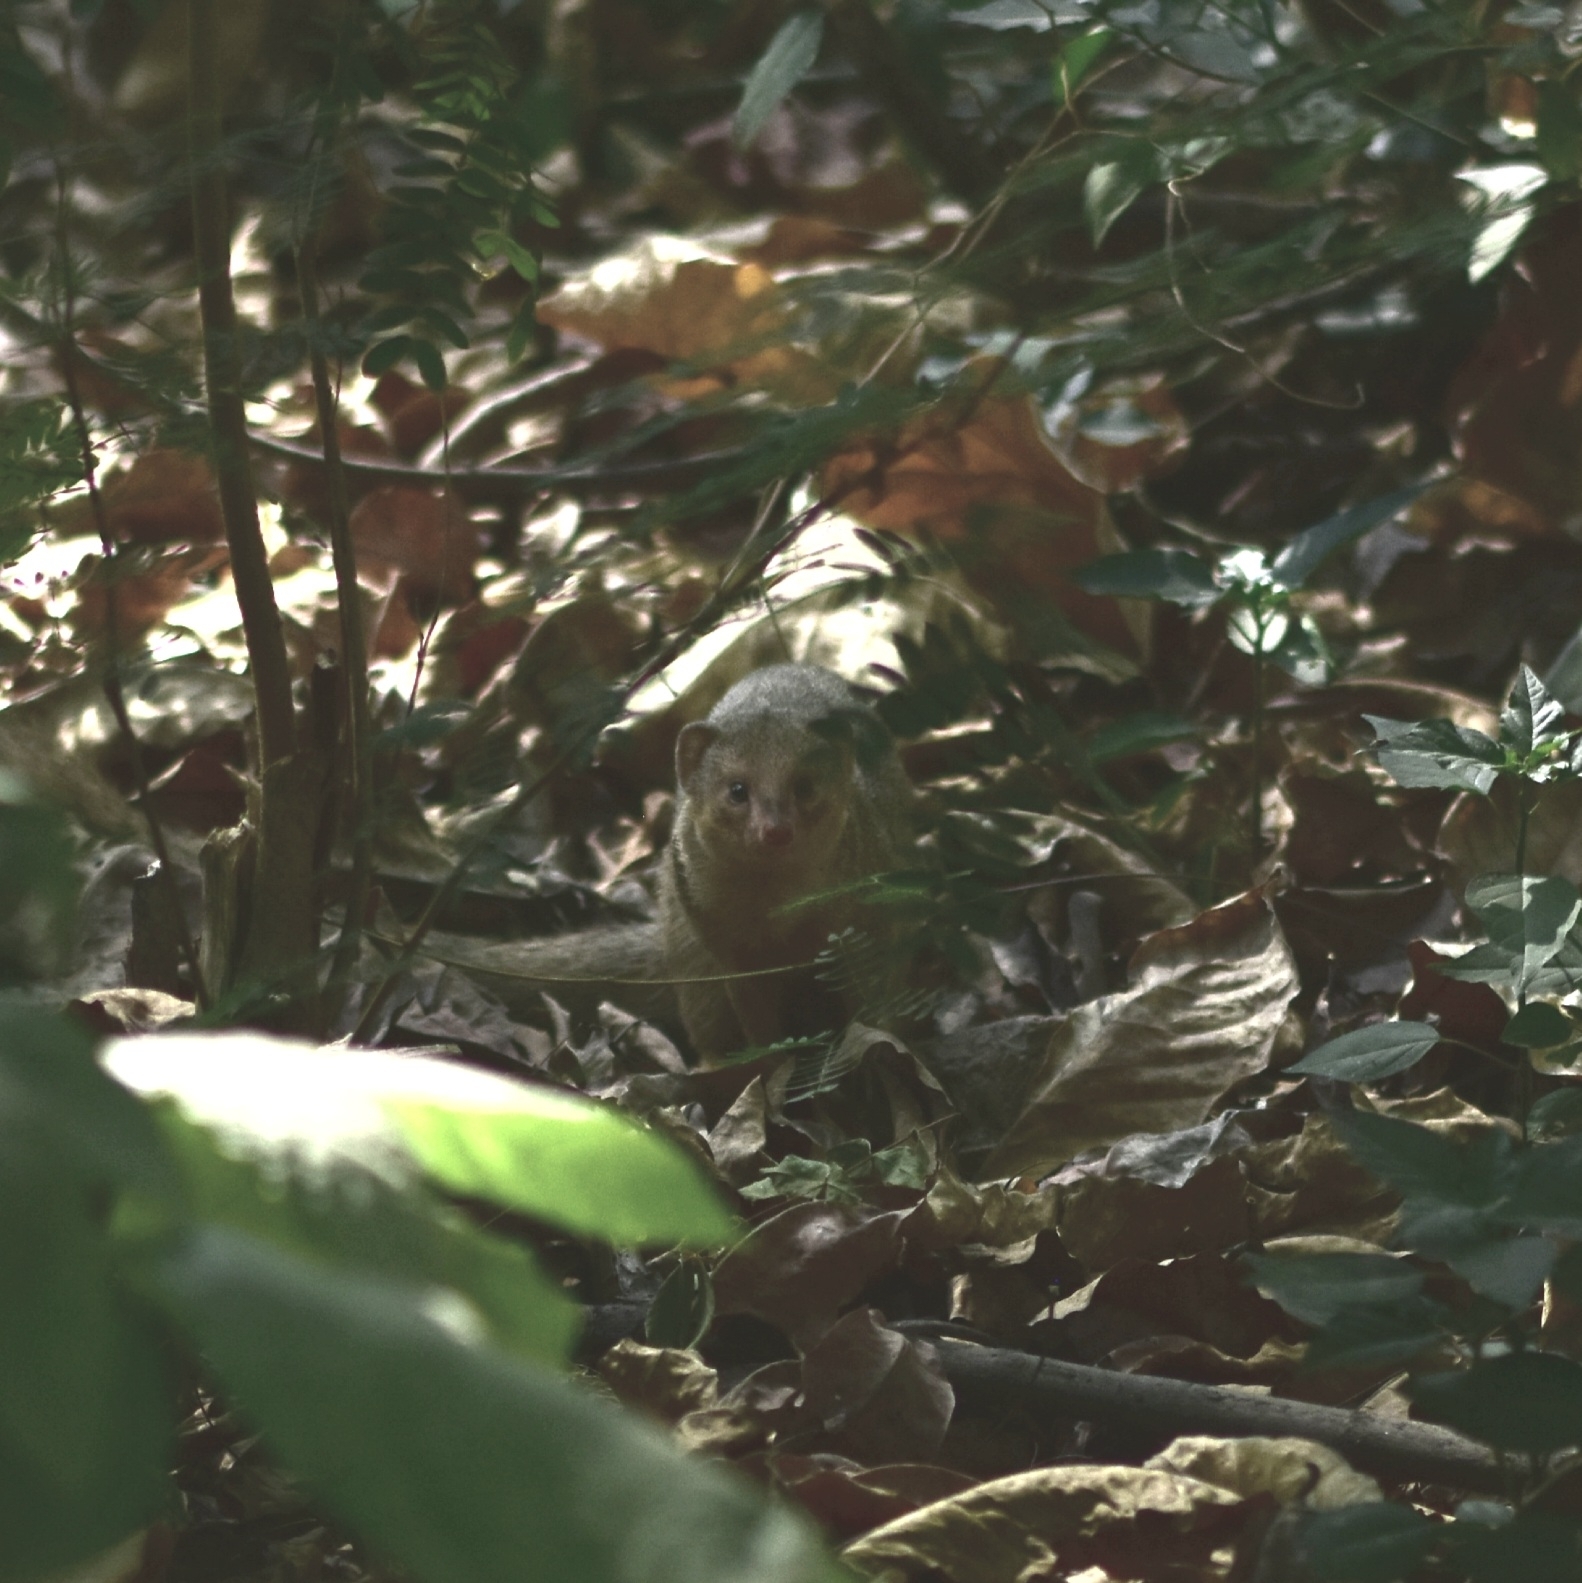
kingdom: Animalia
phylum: Chordata
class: Mammalia
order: Carnivora
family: Herpestidae
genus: Herpestes
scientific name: Herpestes javanicus
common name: Small asian mongoose
